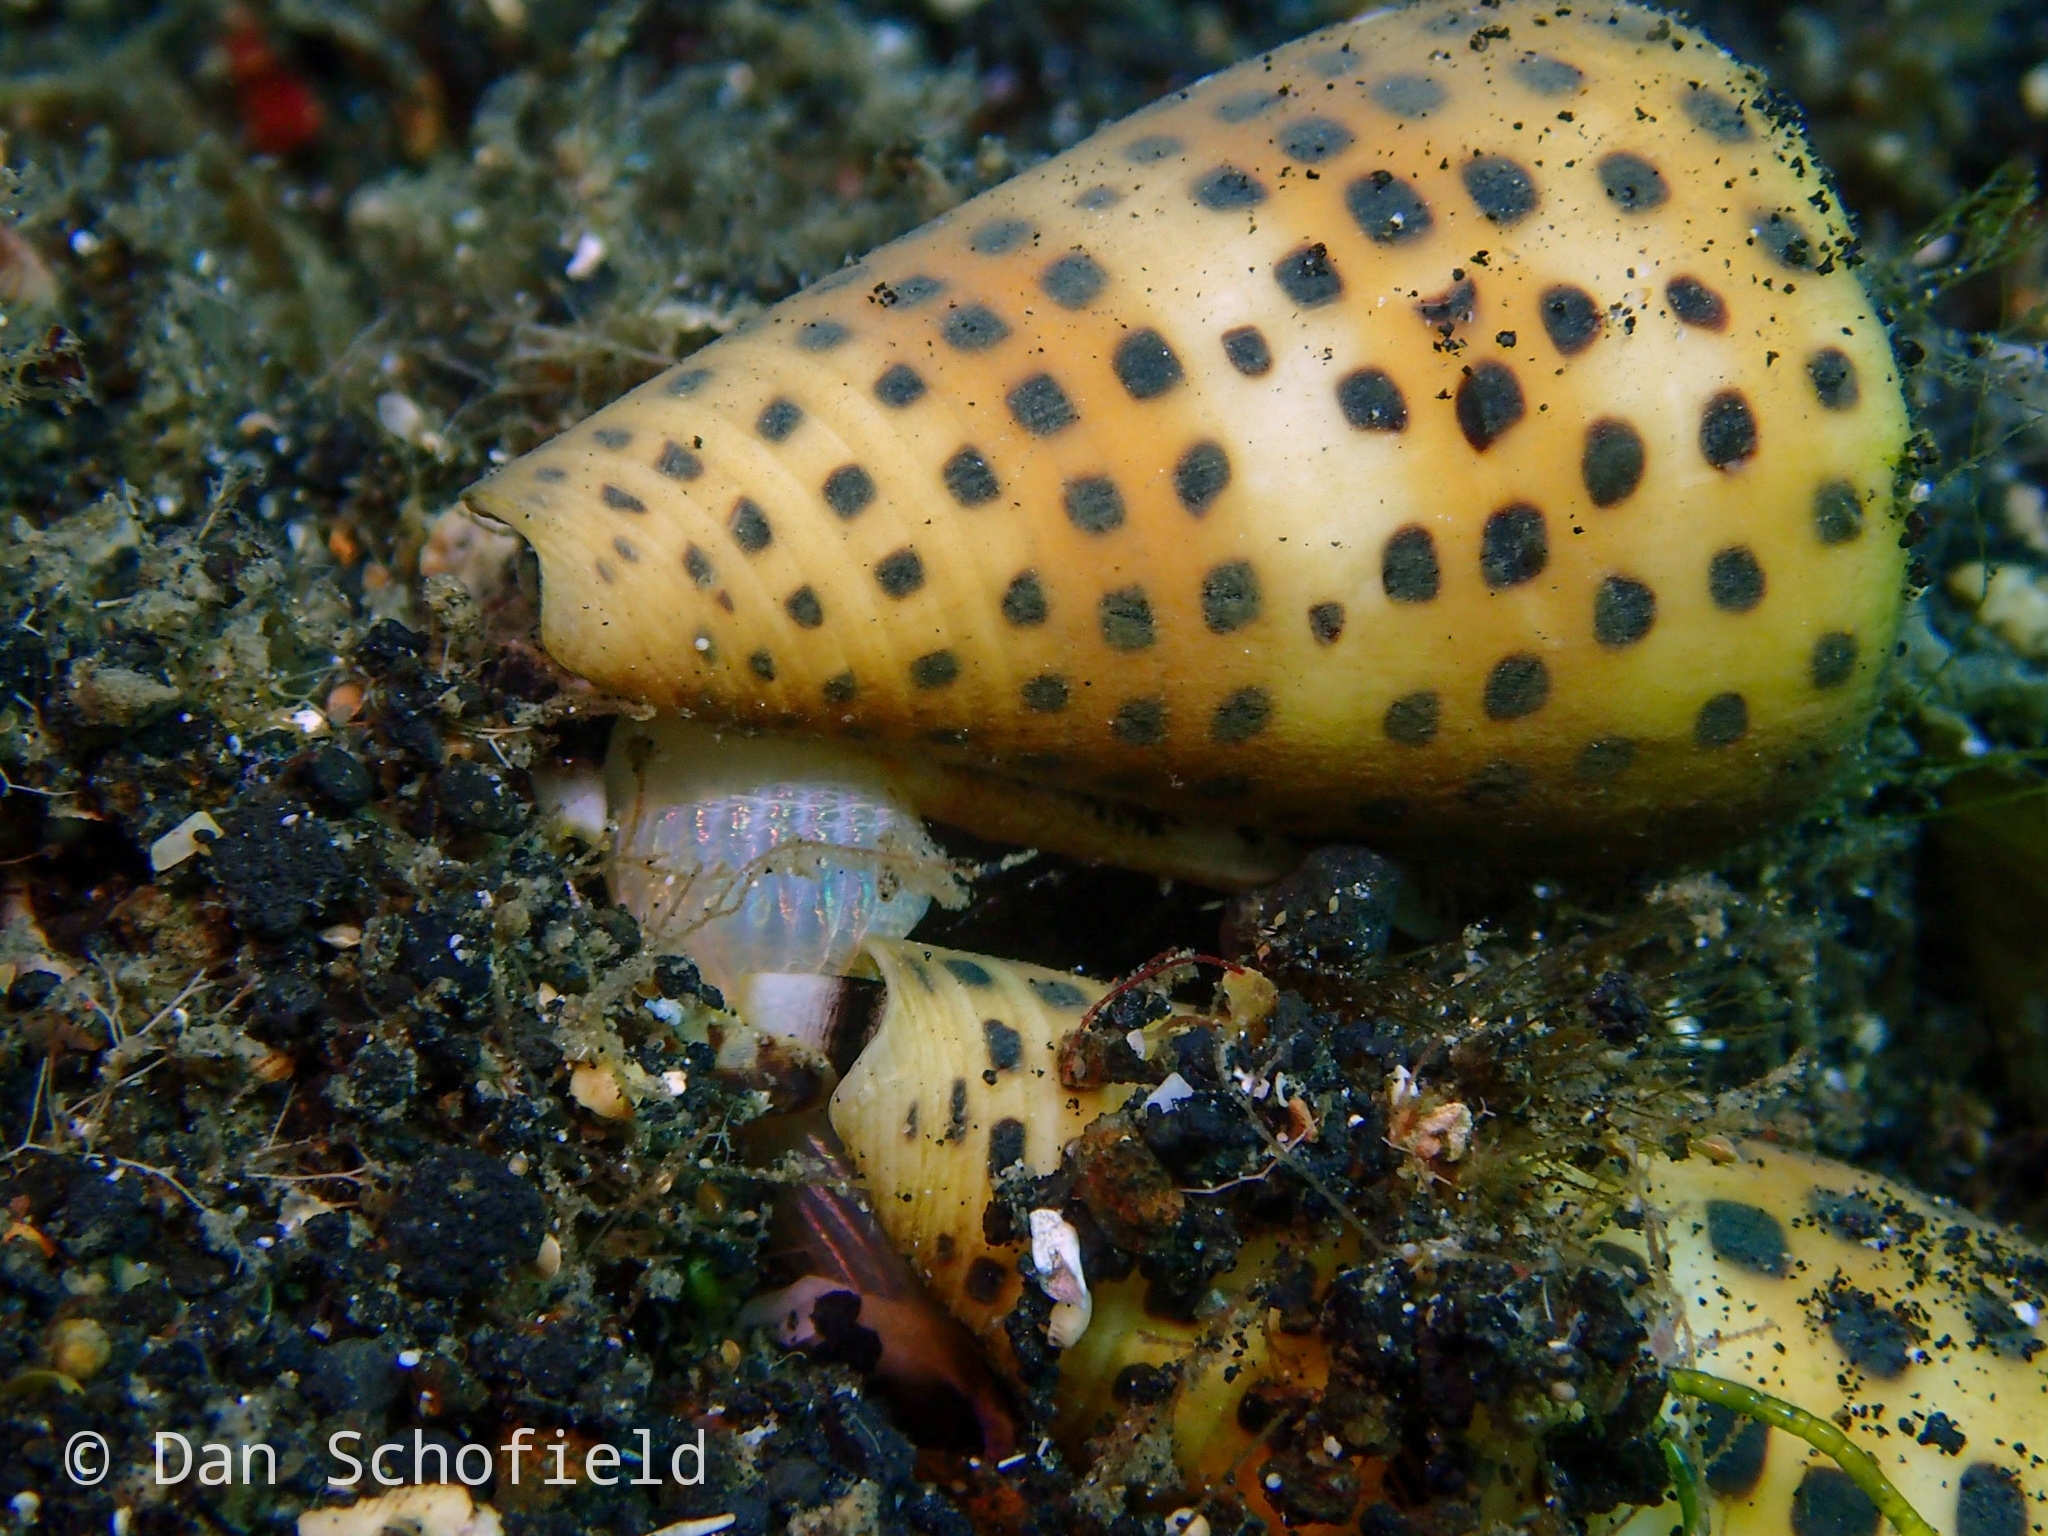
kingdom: Animalia
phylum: Mollusca
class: Gastropoda
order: Neogastropoda
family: Conidae
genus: Conus
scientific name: Conus eburneus
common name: Ivory cone
